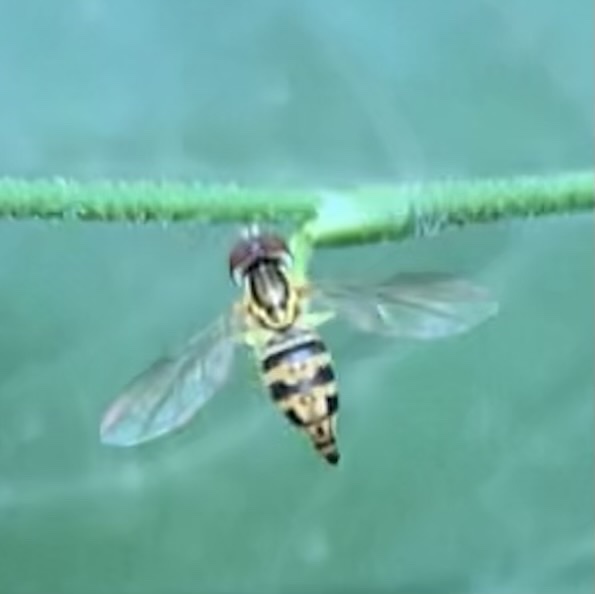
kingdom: Animalia
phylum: Arthropoda
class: Insecta
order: Diptera
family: Syrphidae
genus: Toxomerus
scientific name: Toxomerus geminatus
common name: Eastern calligrapher
